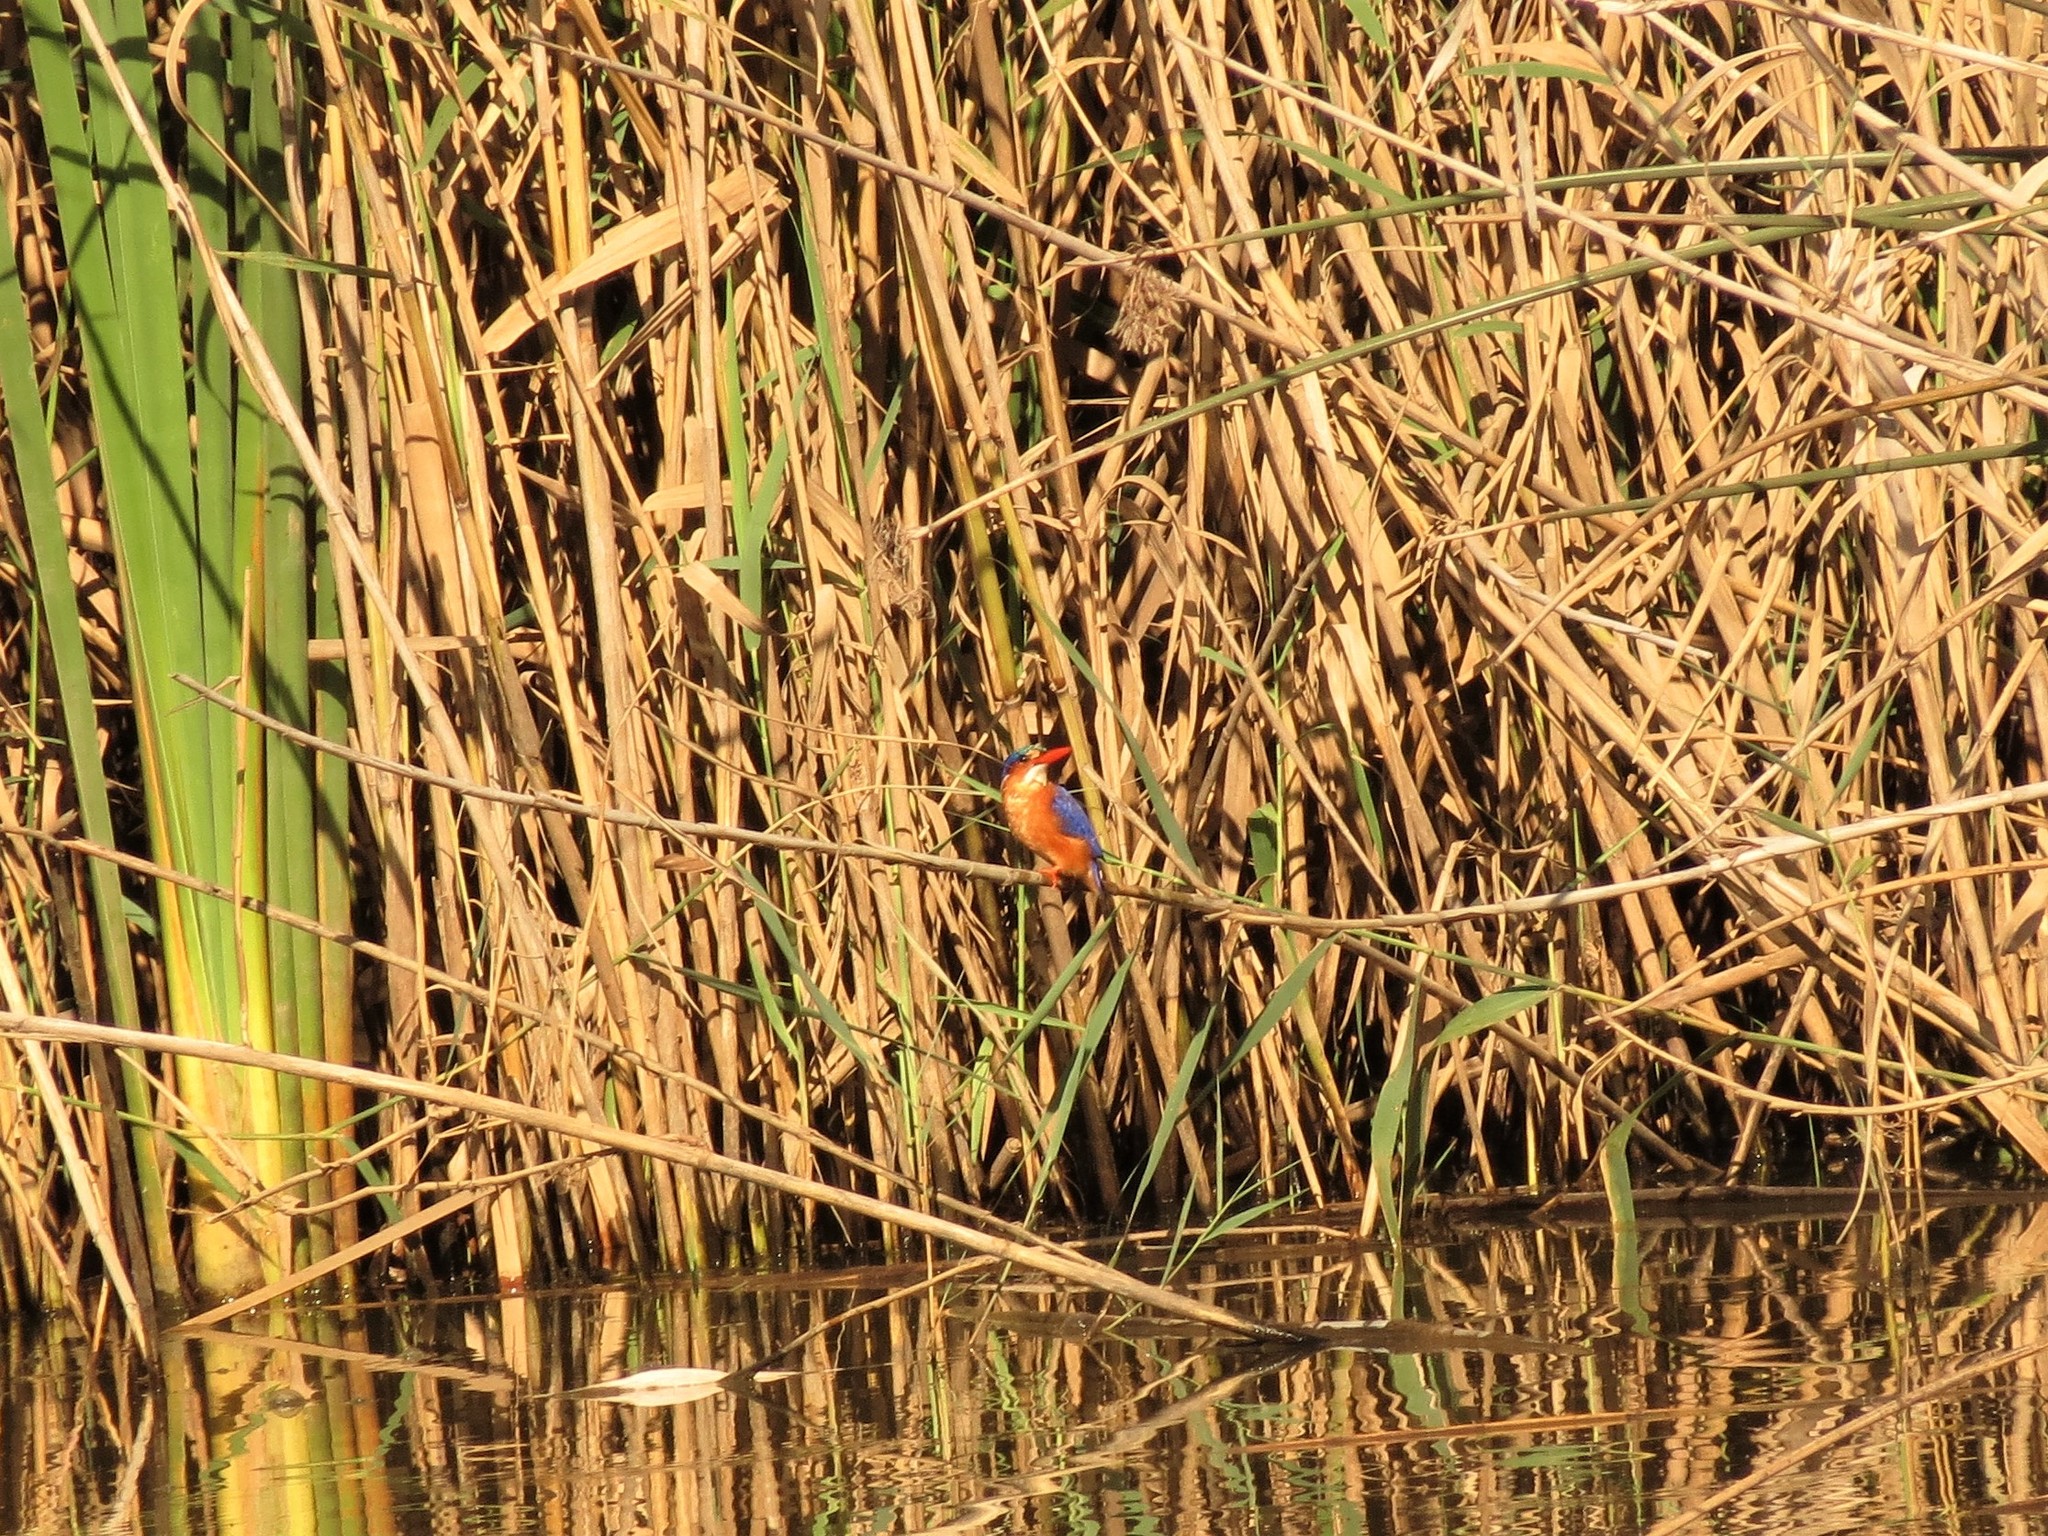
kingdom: Animalia
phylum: Chordata
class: Aves
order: Coraciiformes
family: Alcedinidae
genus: Corythornis
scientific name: Corythornis cristatus
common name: Malachite kingfisher
